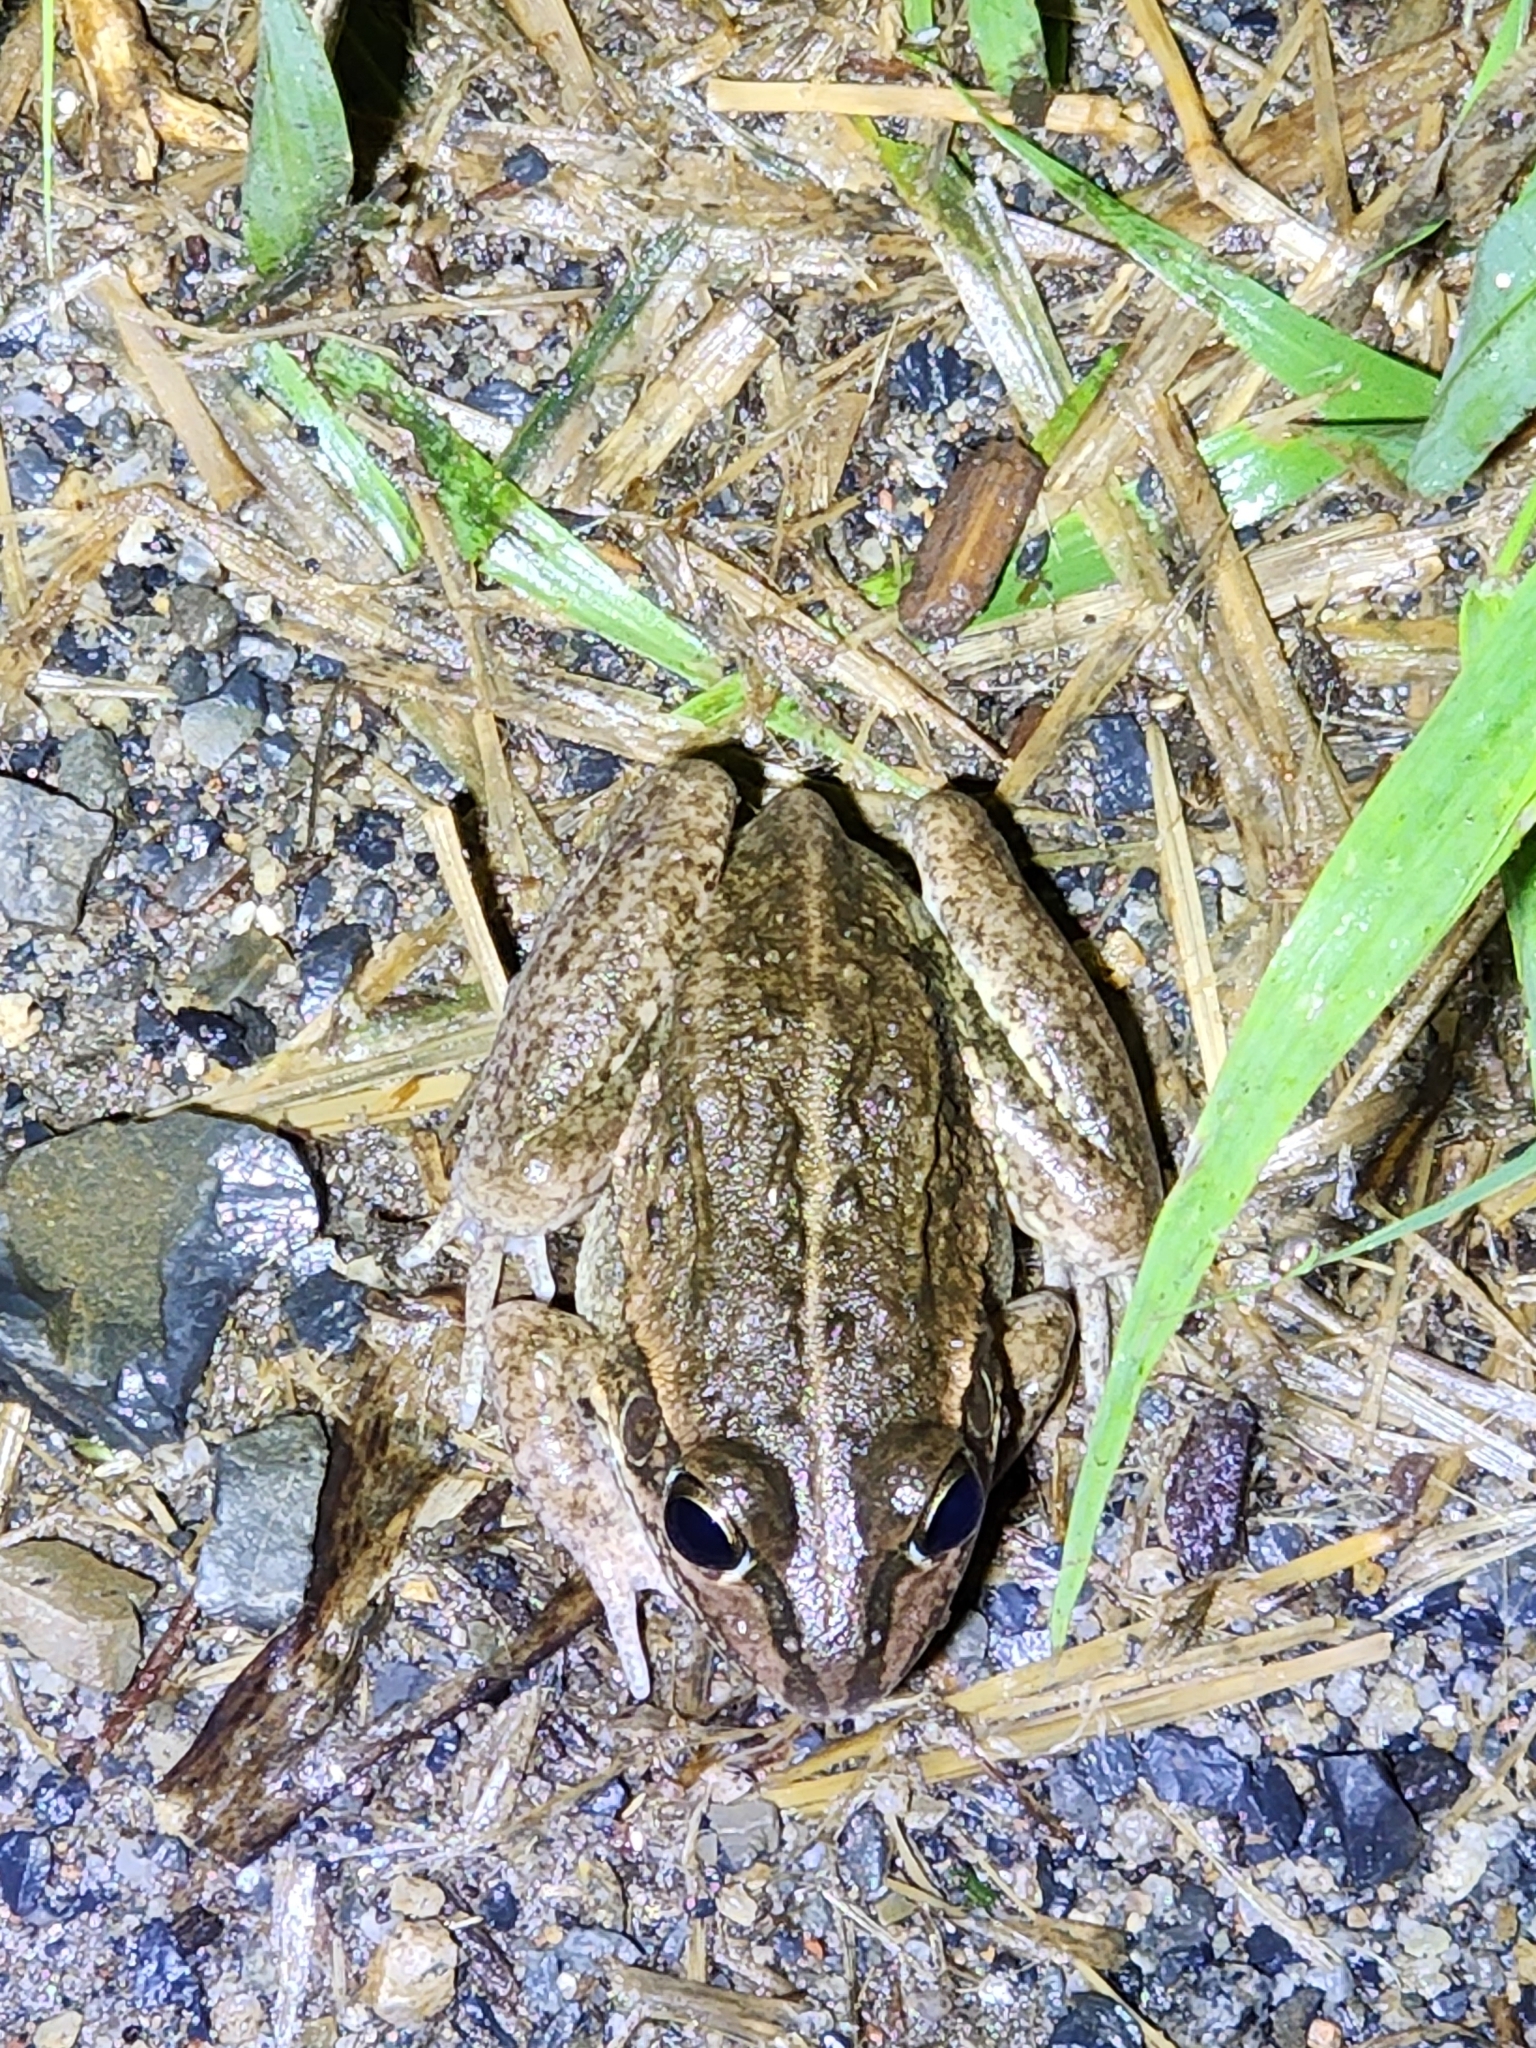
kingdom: Animalia
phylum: Chordata
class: Amphibia
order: Anura
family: Pelodryadidae
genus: Ranoidea
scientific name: Ranoidea alboguttata
